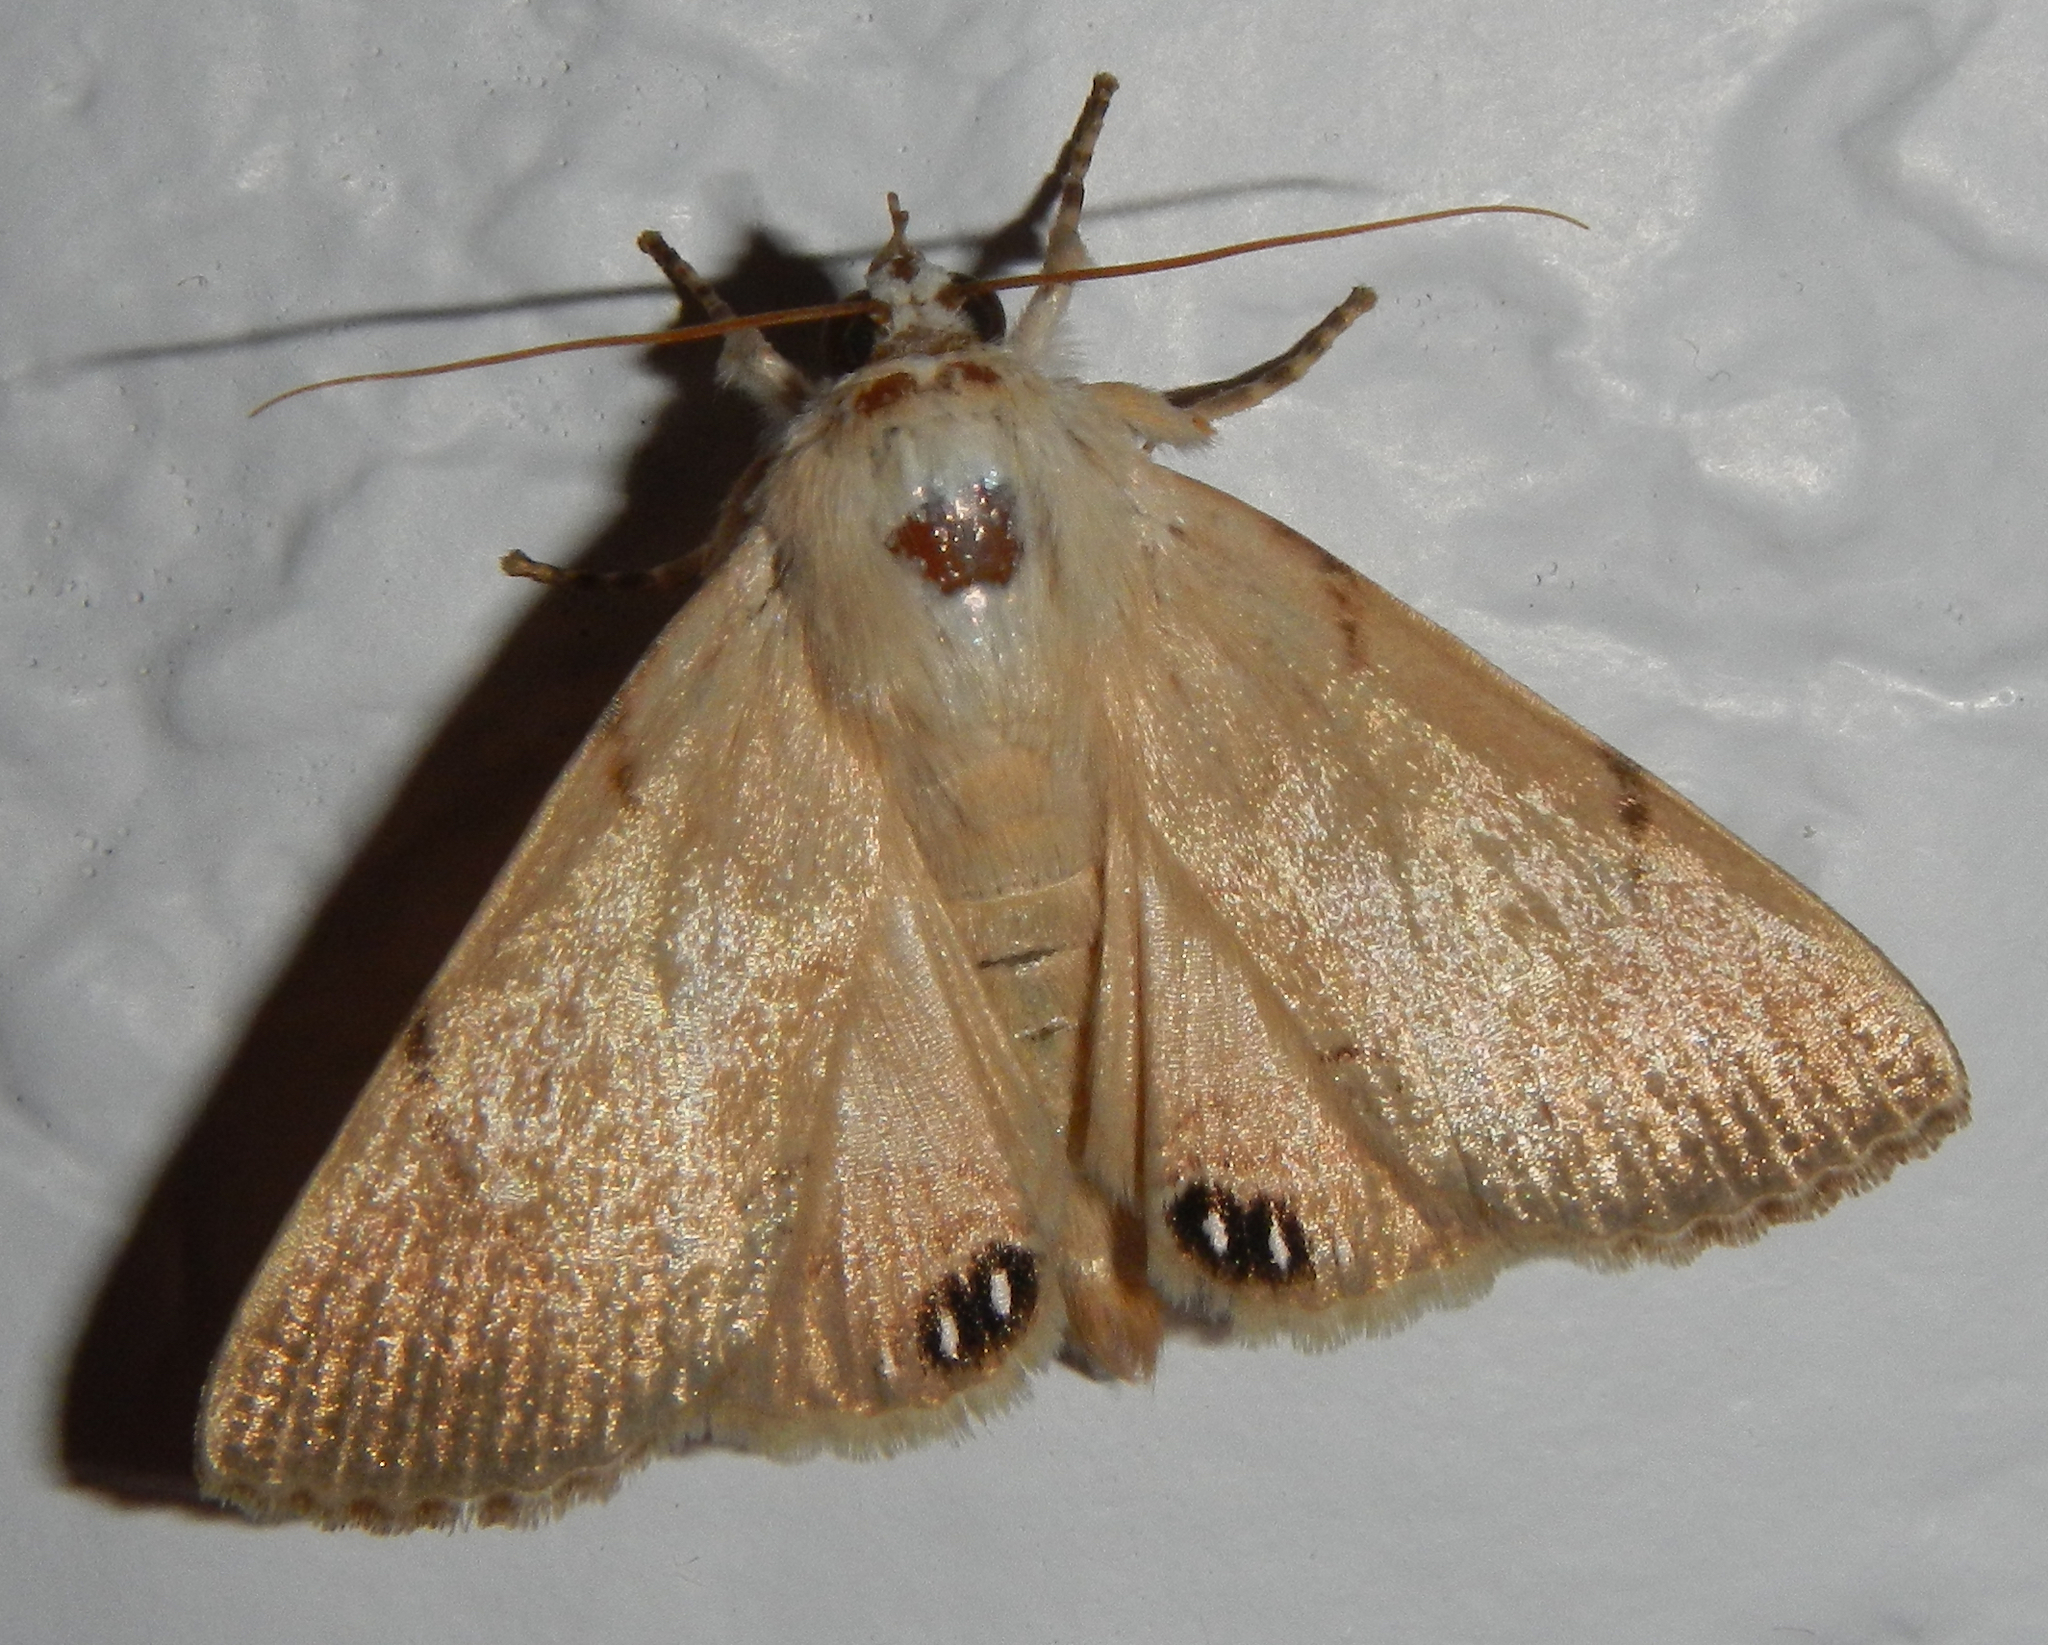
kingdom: Animalia
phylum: Arthropoda
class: Insecta
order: Lepidoptera
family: Erebidae
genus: Litoprosopus
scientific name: Litoprosopus coachella
